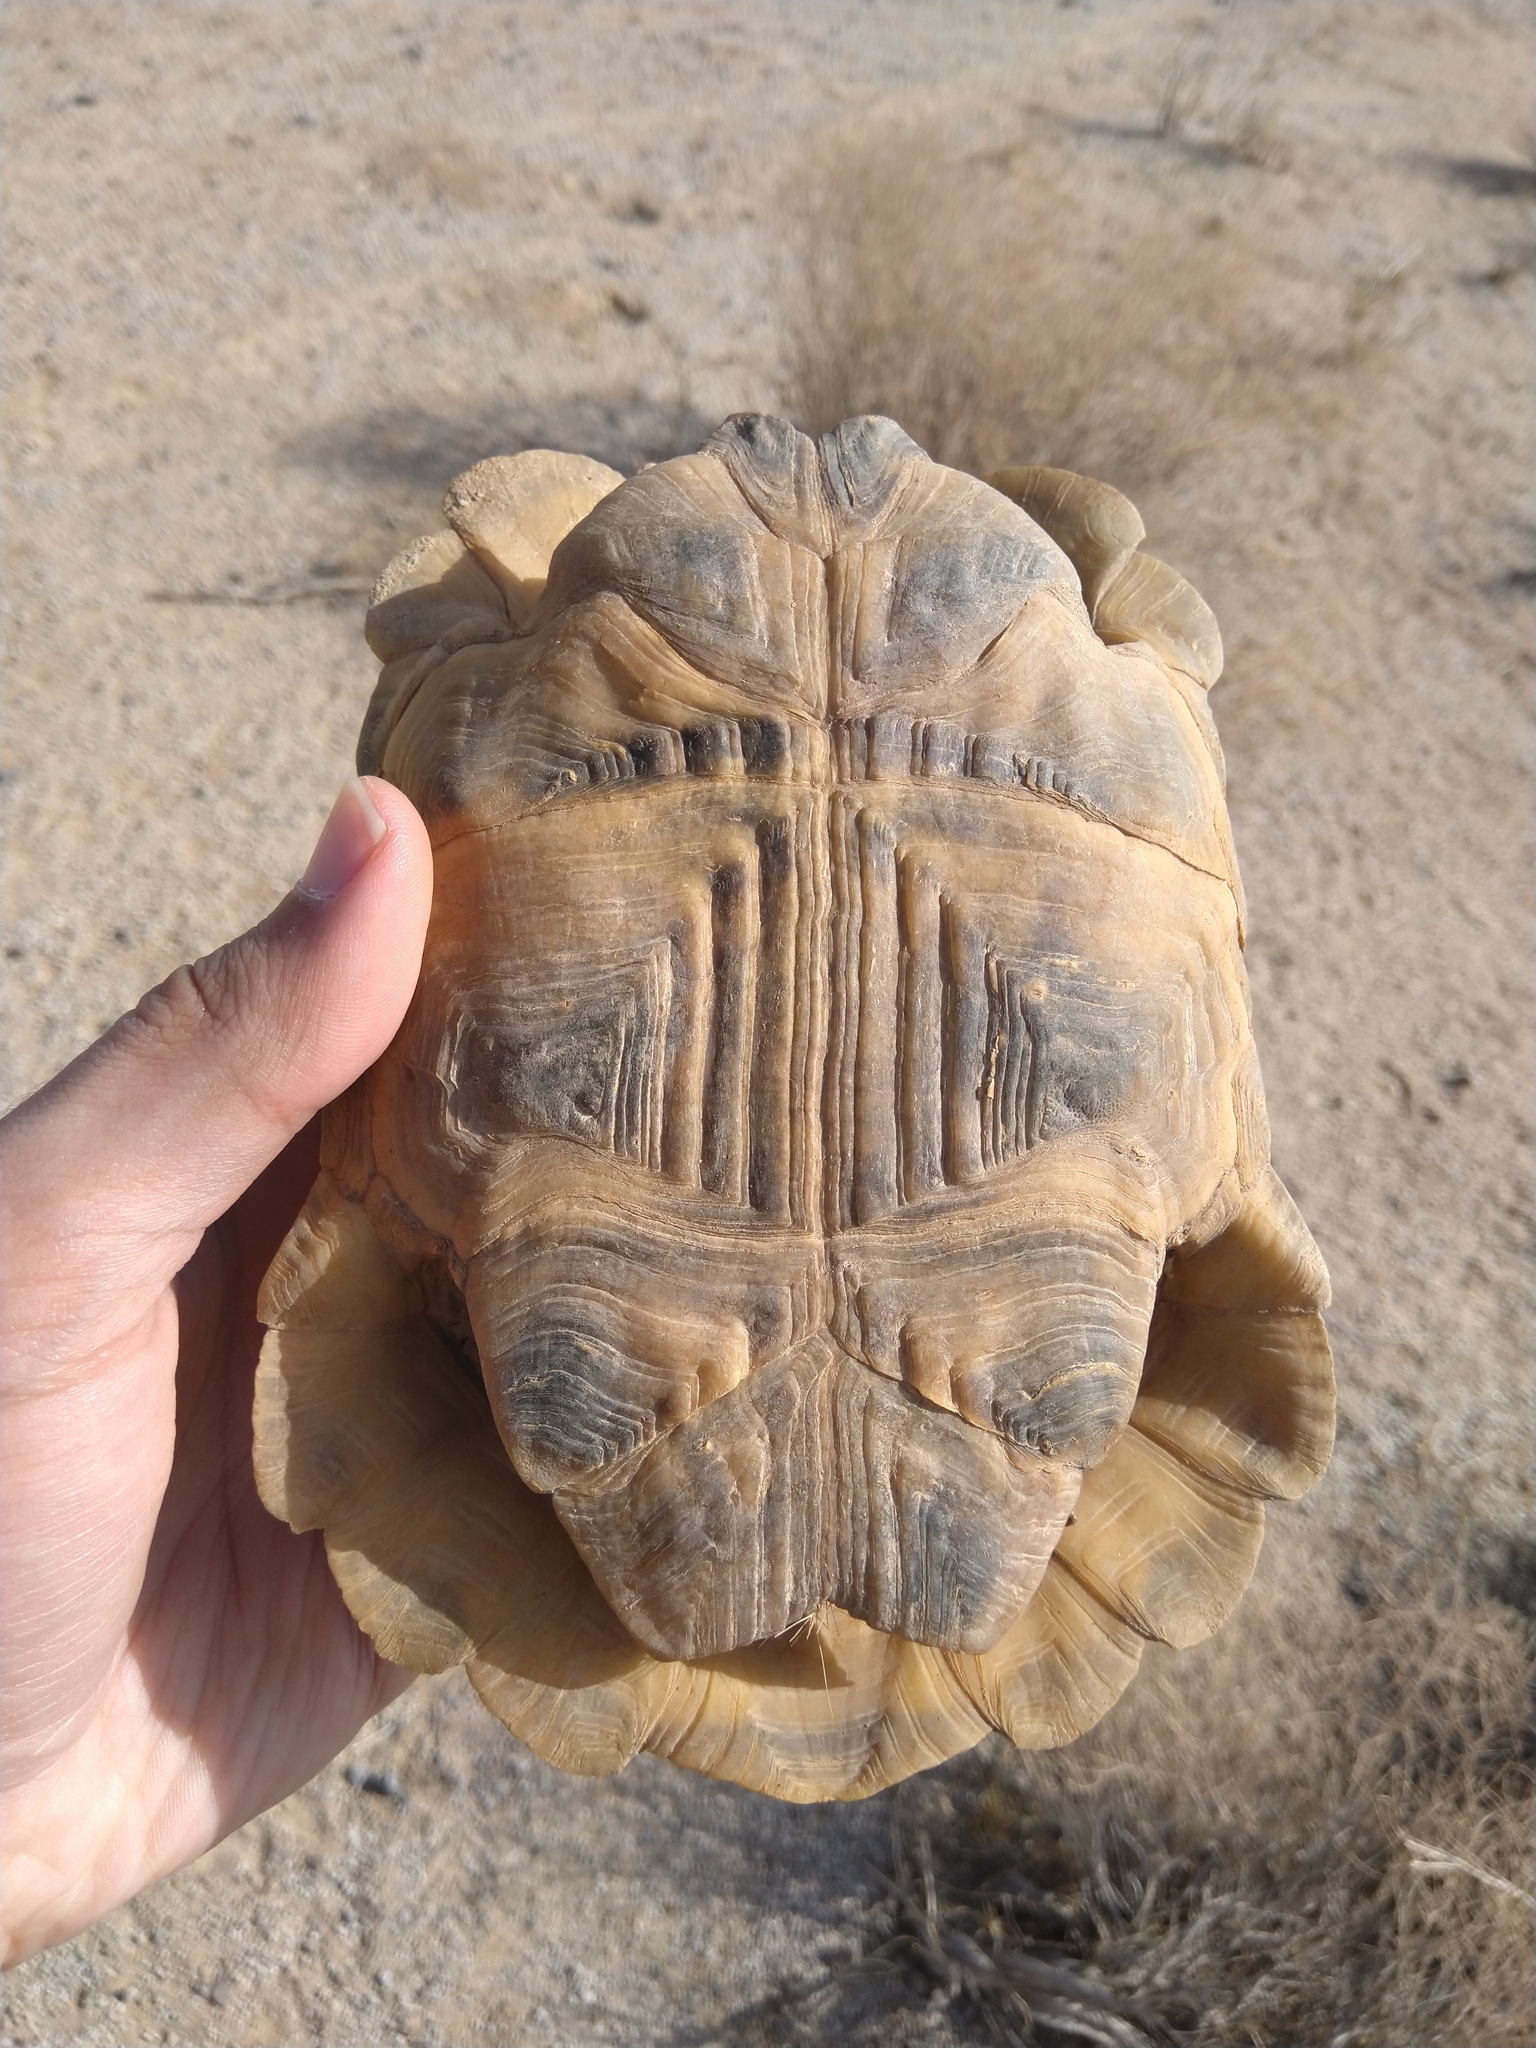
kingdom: Animalia
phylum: Chordata
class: Testudines
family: Testudinidae
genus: Testudo
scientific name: Testudo graeca
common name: Common tortoise
